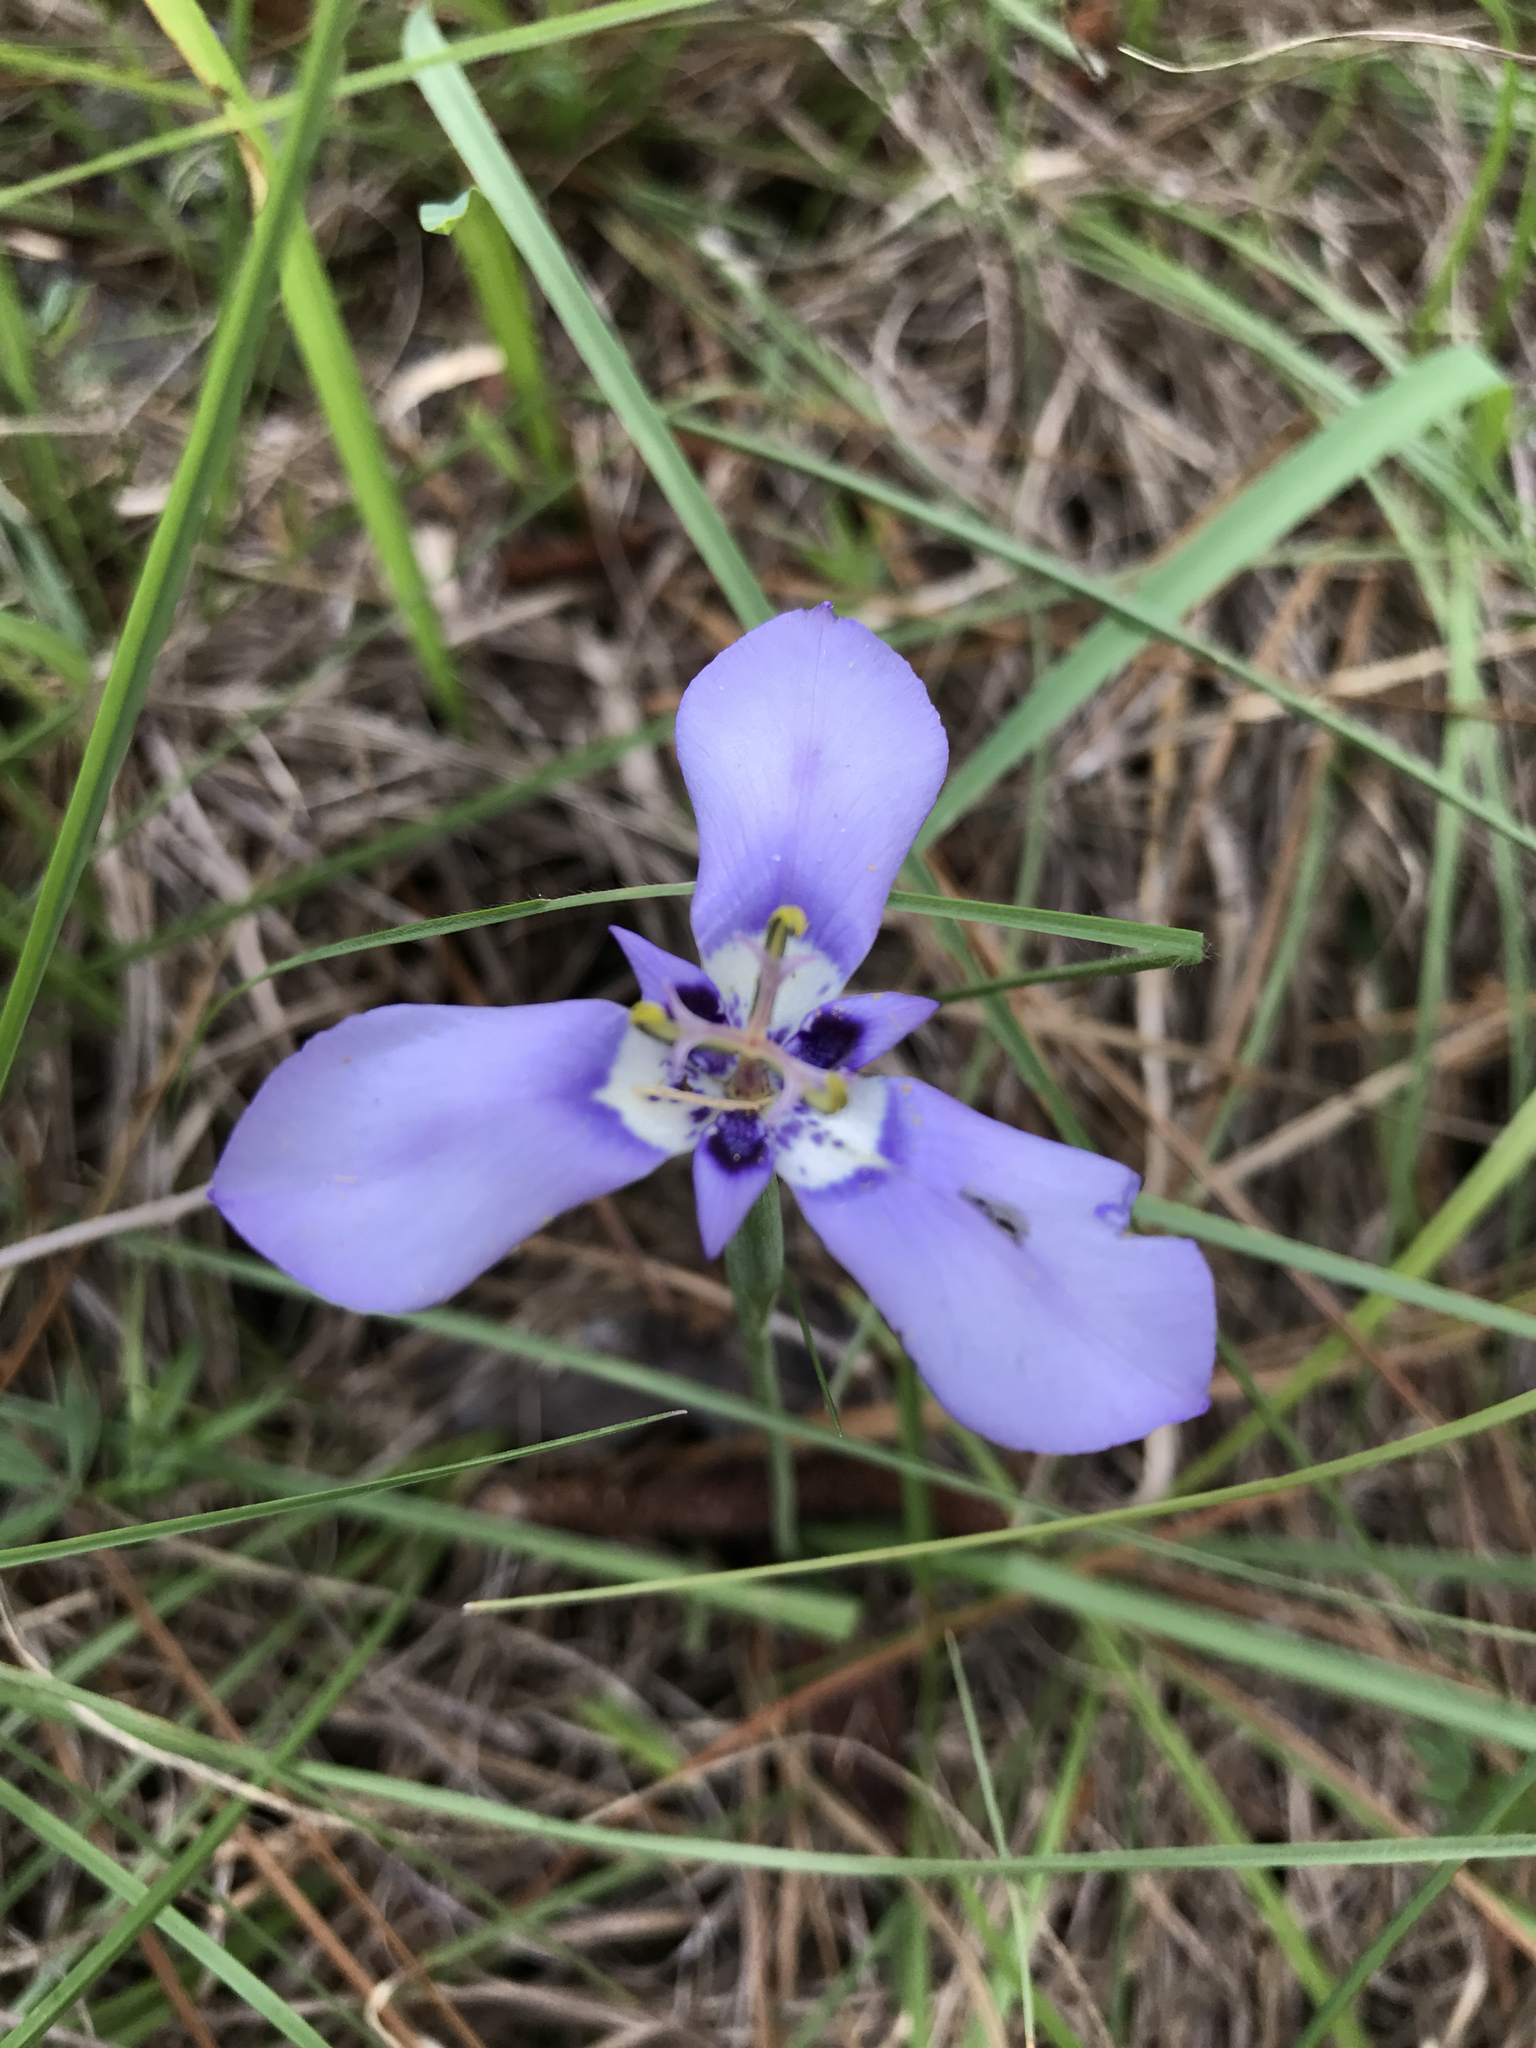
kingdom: Plantae
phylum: Tracheophyta
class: Liliopsida
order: Asparagales
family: Iridaceae
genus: Herbertia
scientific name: Herbertia lahue
